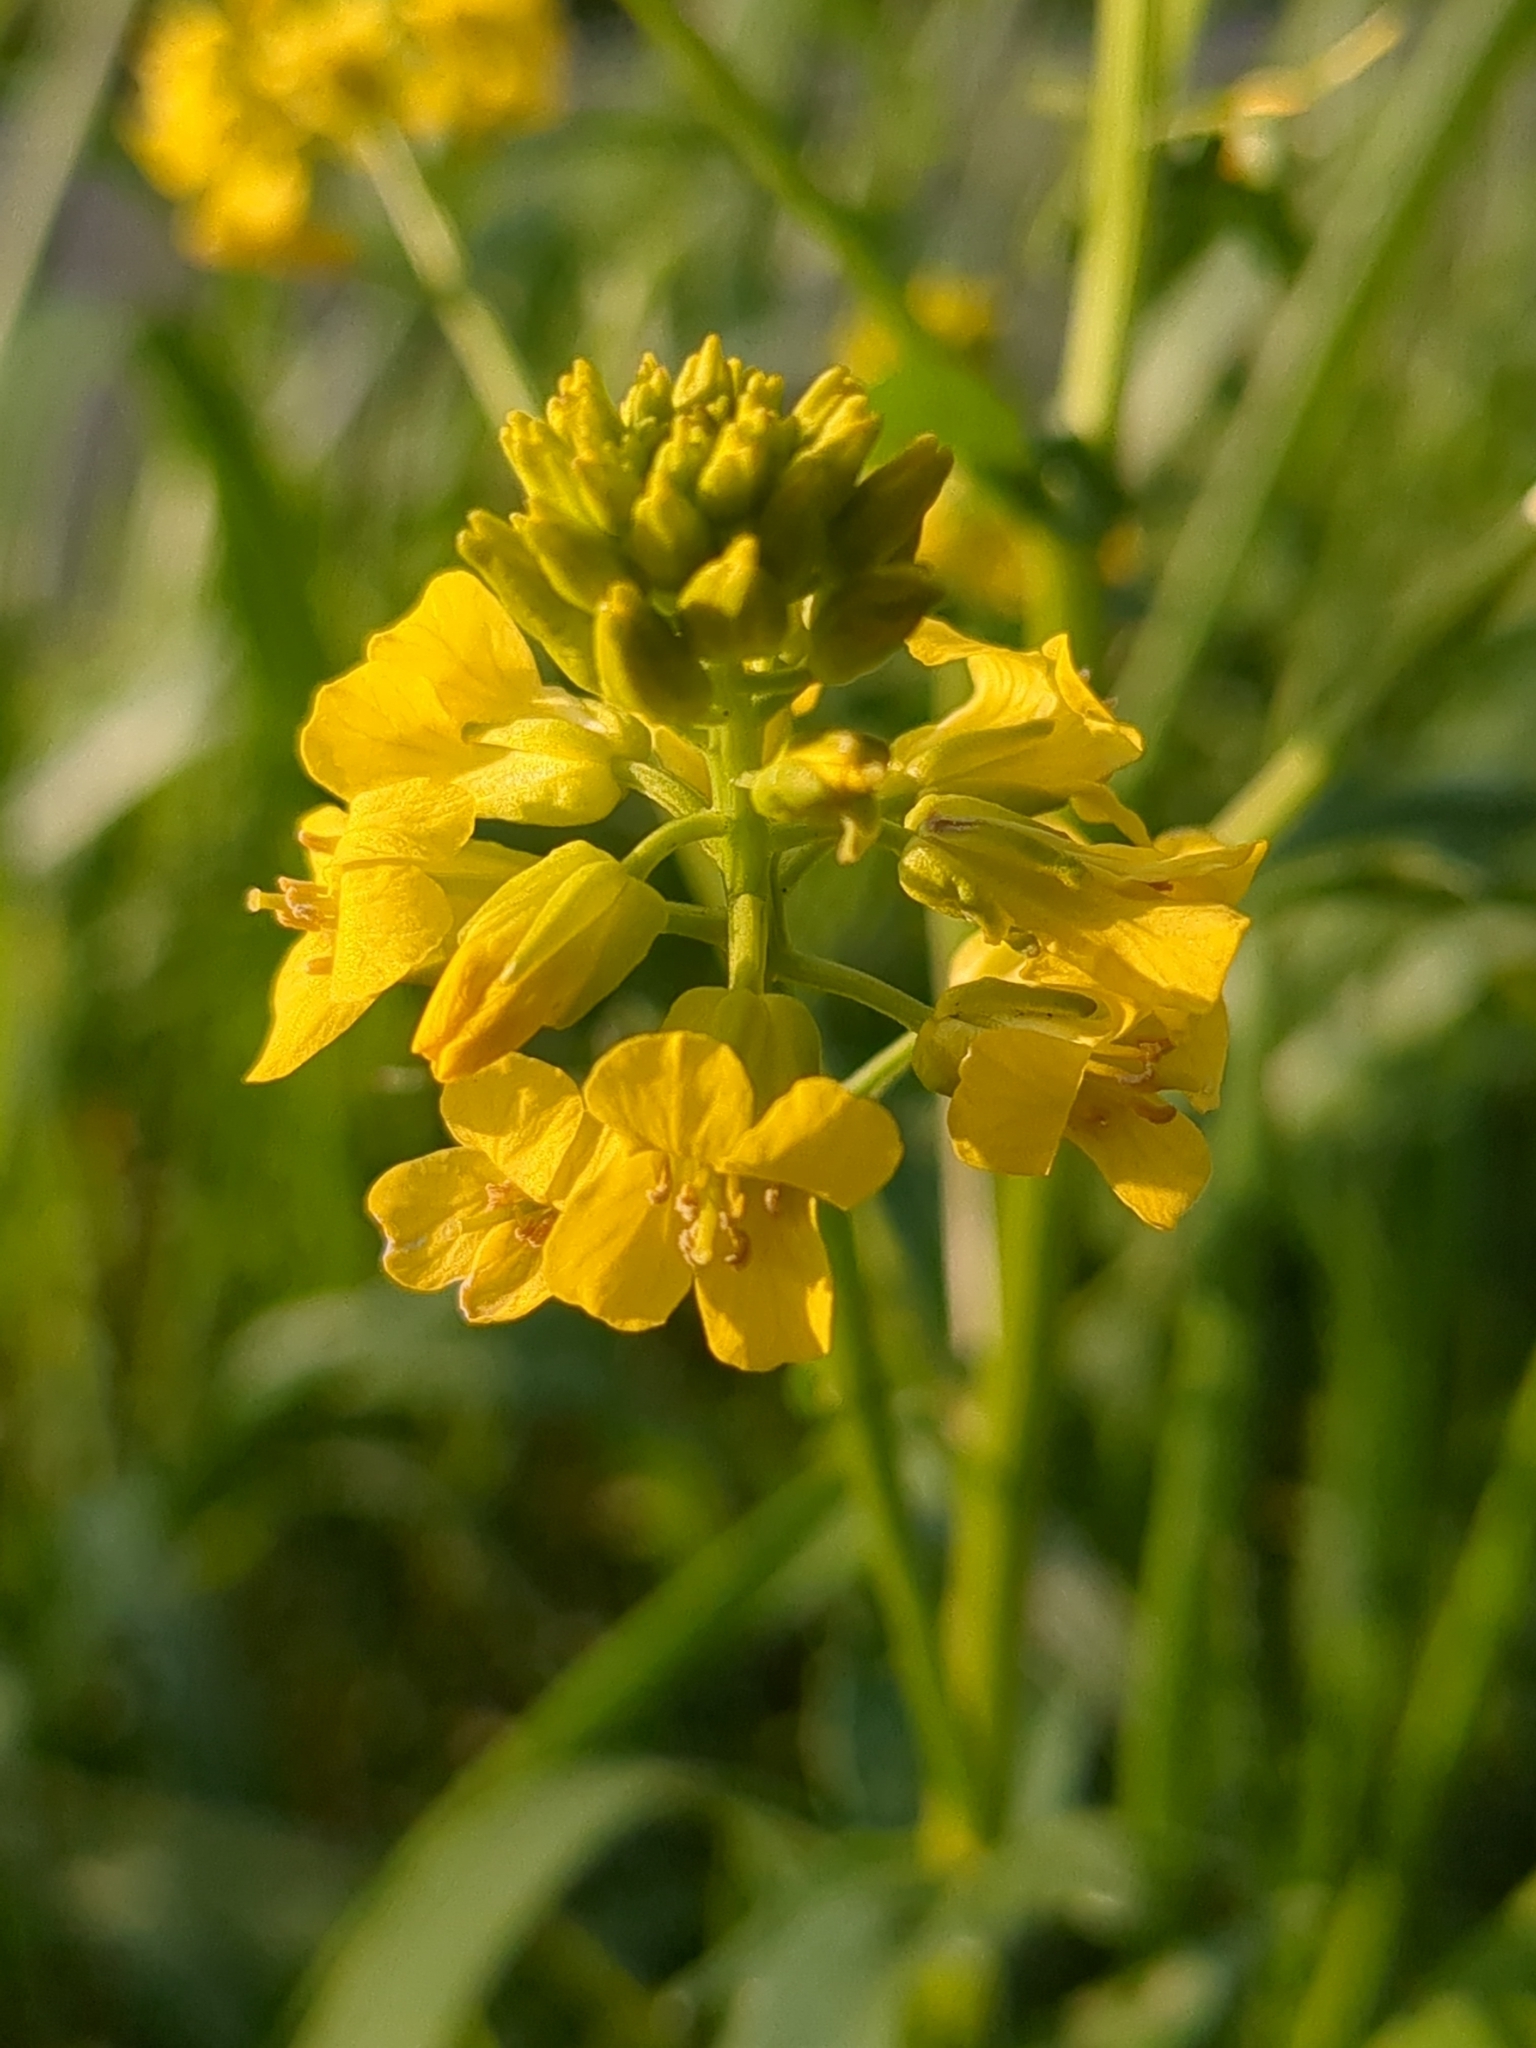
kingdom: Plantae
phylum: Tracheophyta
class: Magnoliopsida
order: Brassicales
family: Brassicaceae
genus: Barbarea
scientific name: Barbarea vulgaris
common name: Cressy-greens
